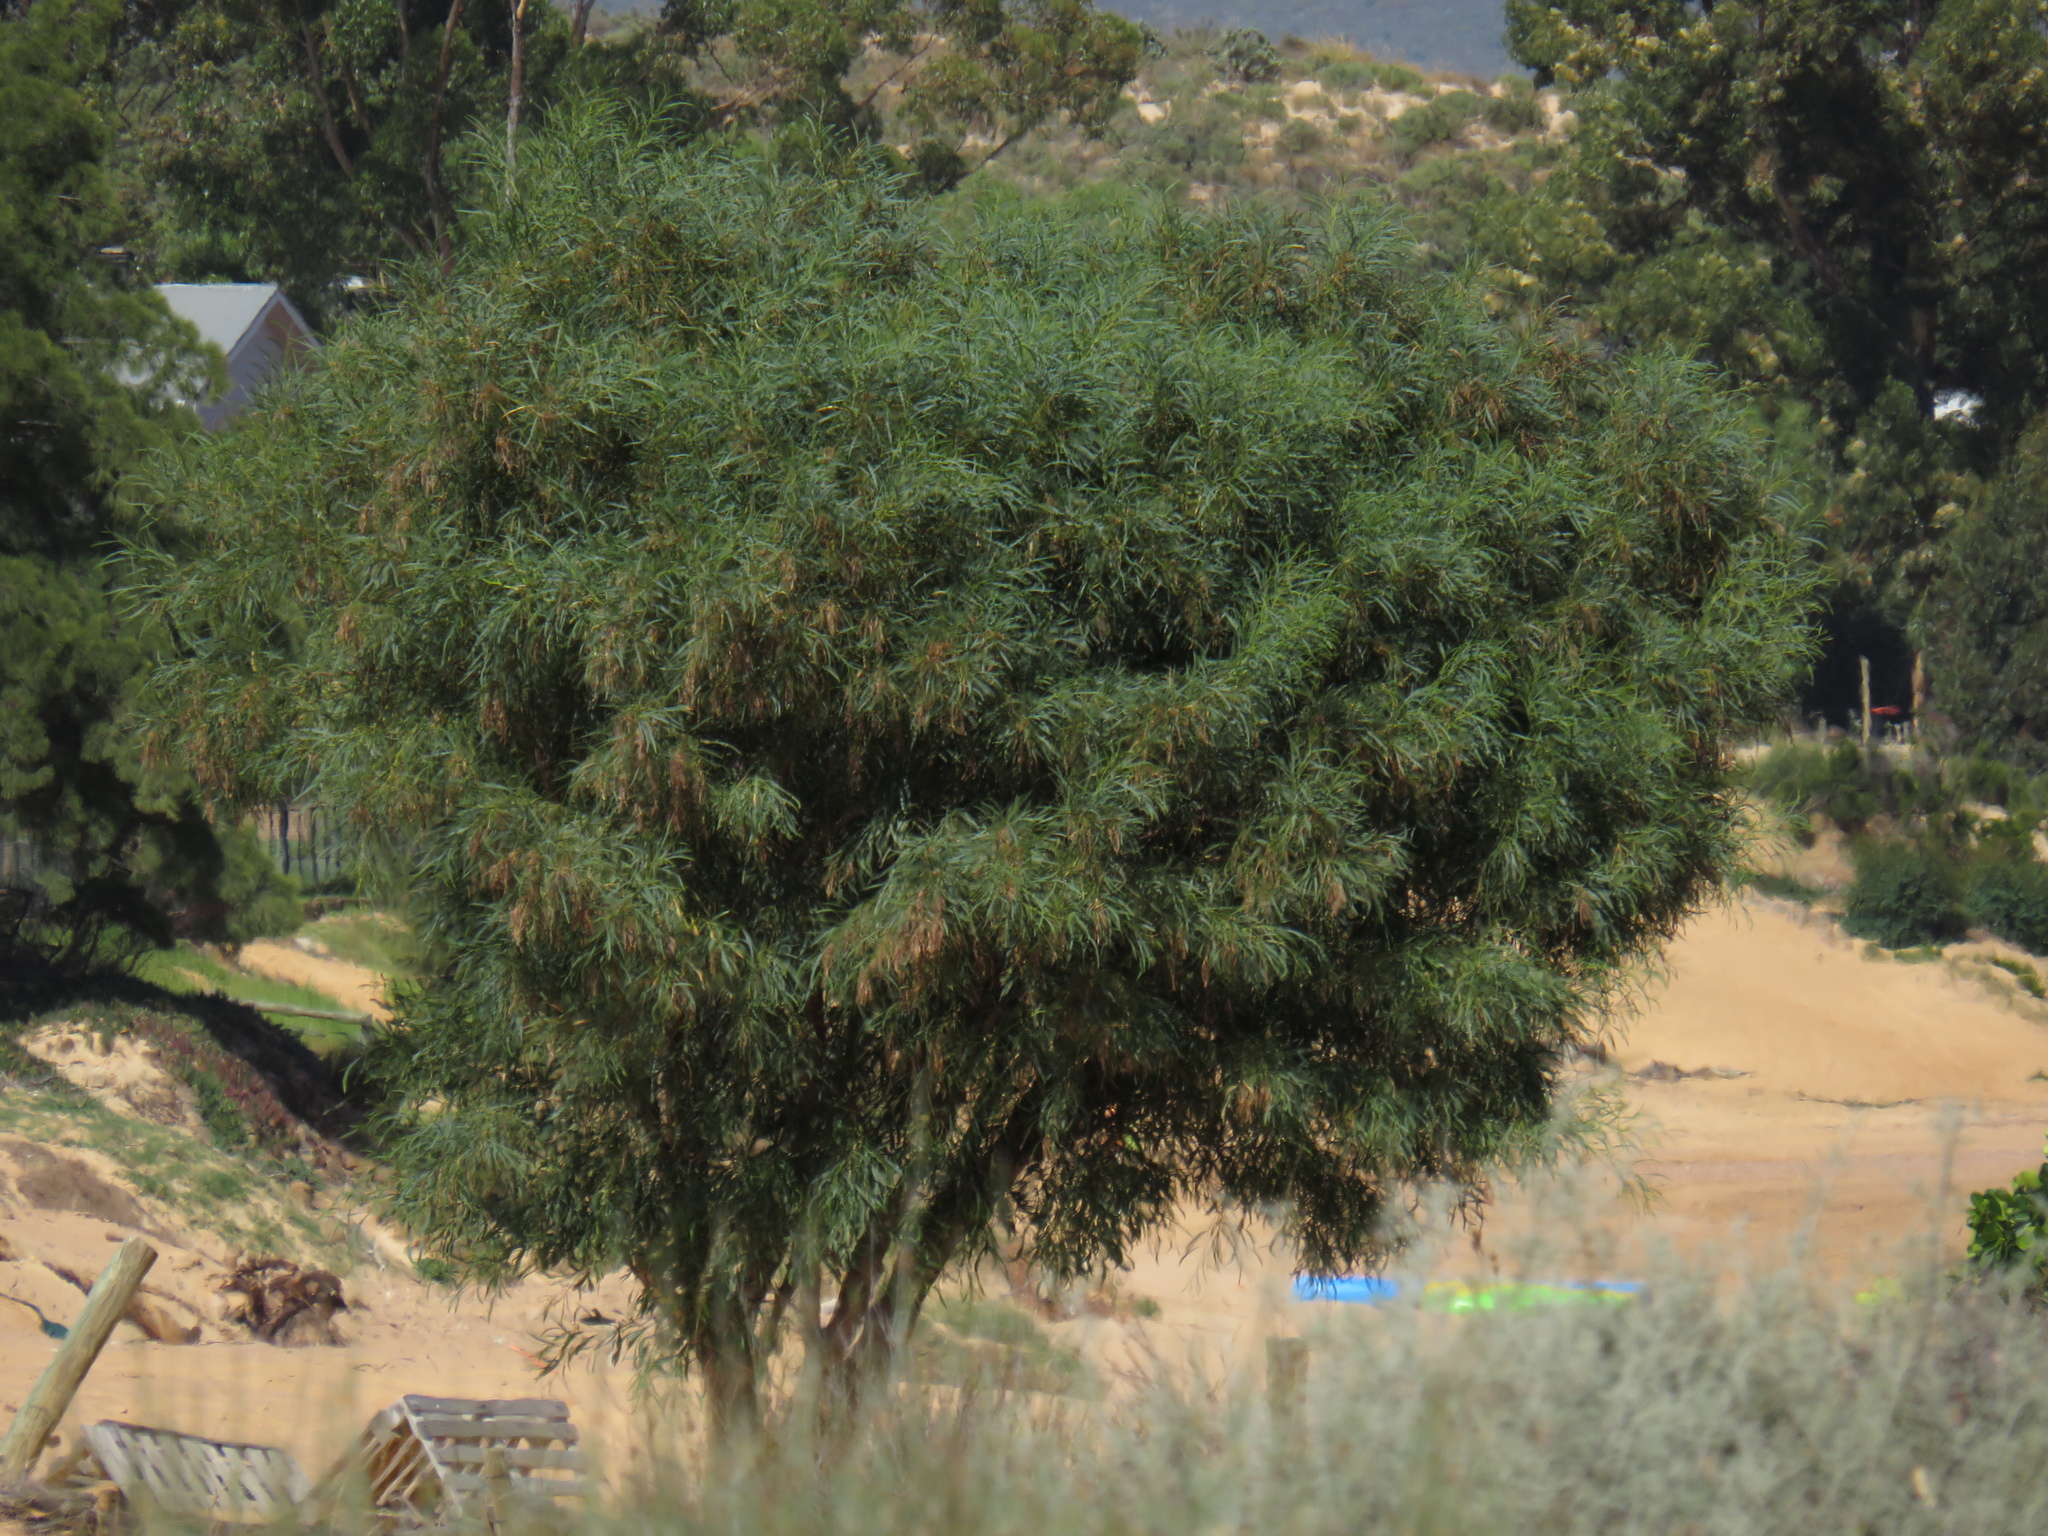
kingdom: Plantae
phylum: Tracheophyta
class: Magnoliopsida
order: Fabales
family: Fabaceae
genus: Acacia
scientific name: Acacia saligna
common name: Orange wattle
